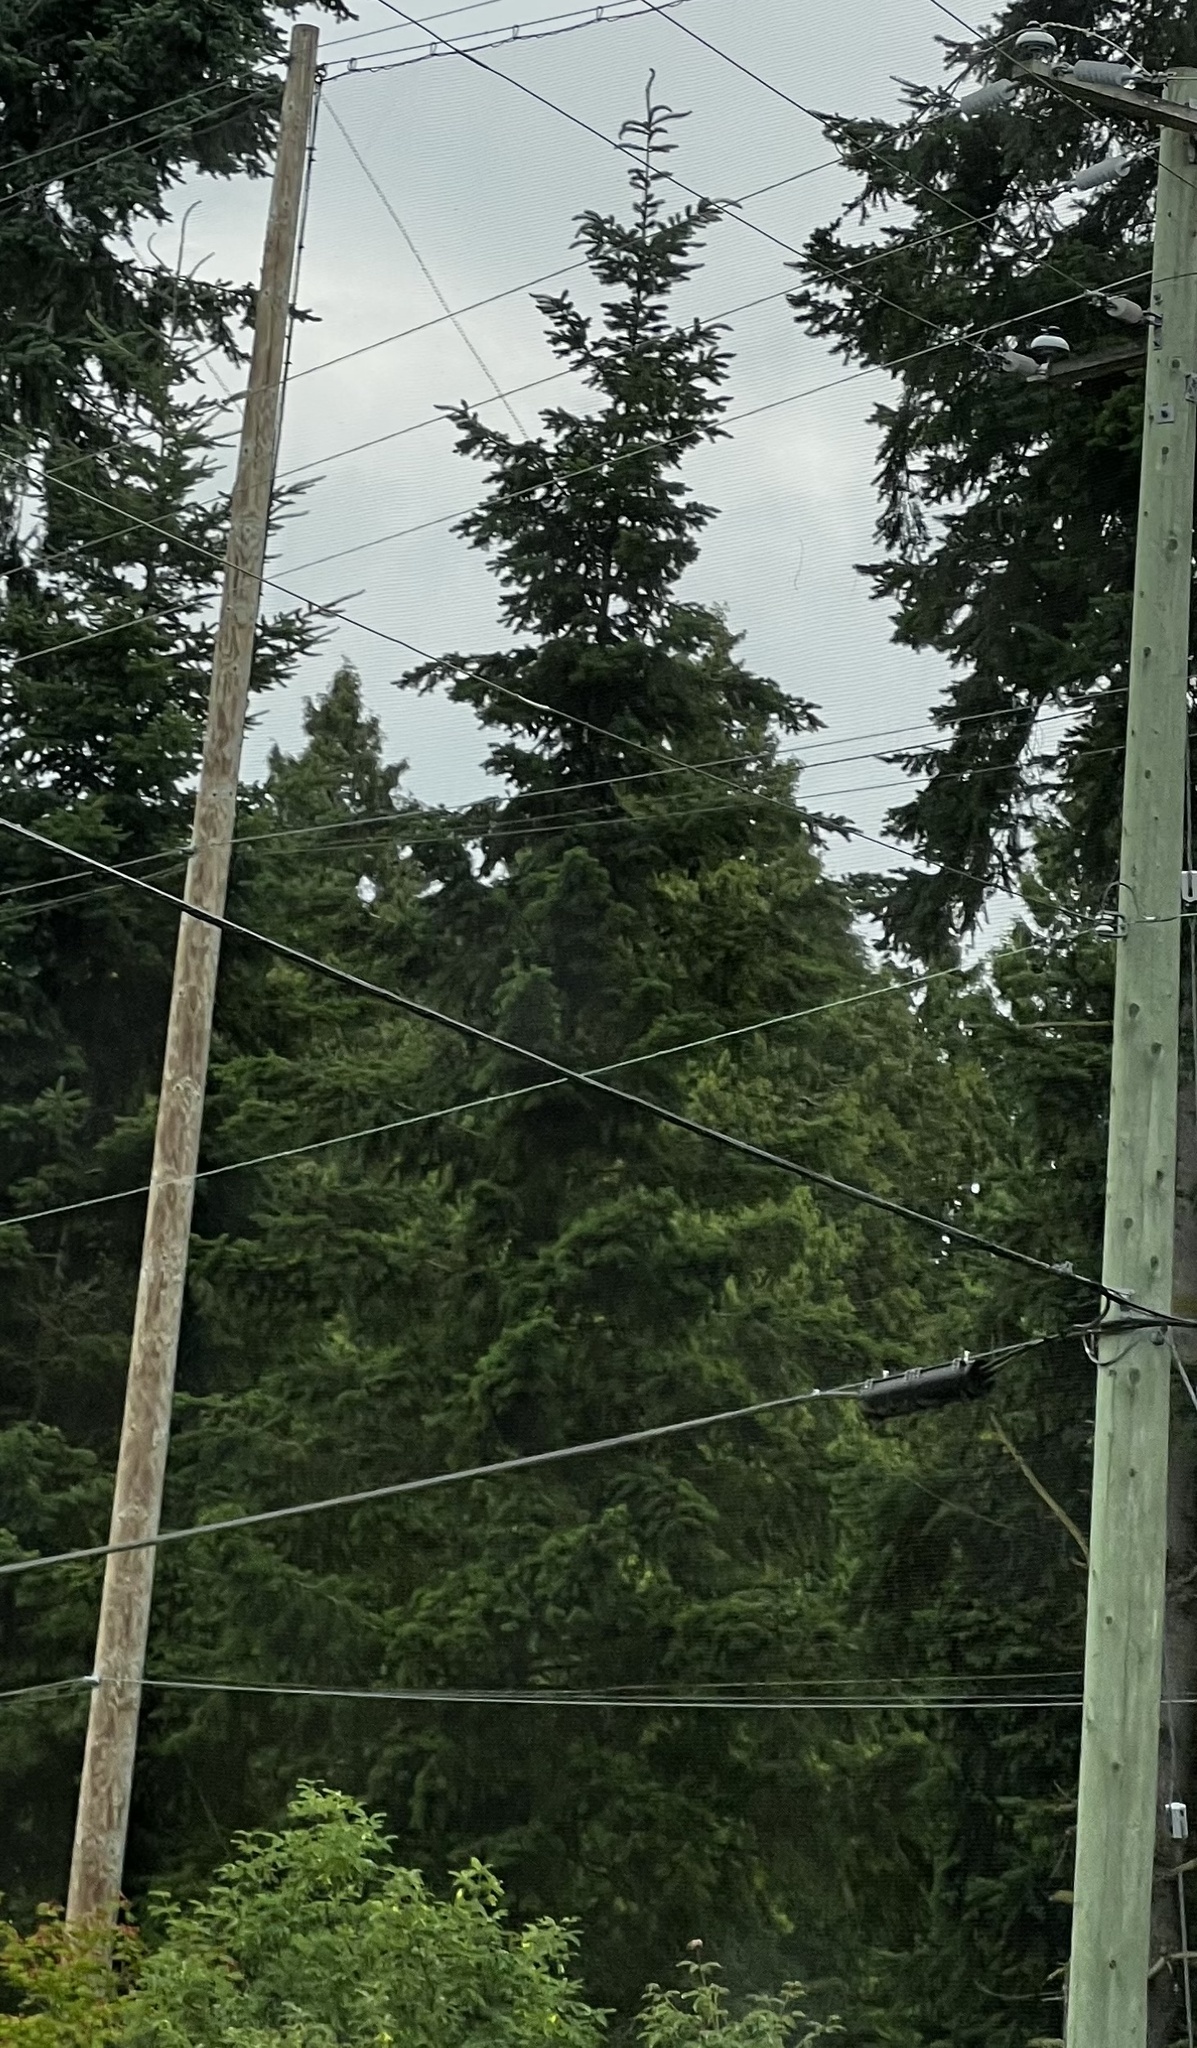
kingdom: Plantae
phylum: Tracheophyta
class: Pinopsida
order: Pinales
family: Pinaceae
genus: Pseudotsuga
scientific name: Pseudotsuga menziesii
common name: Douglas fir
